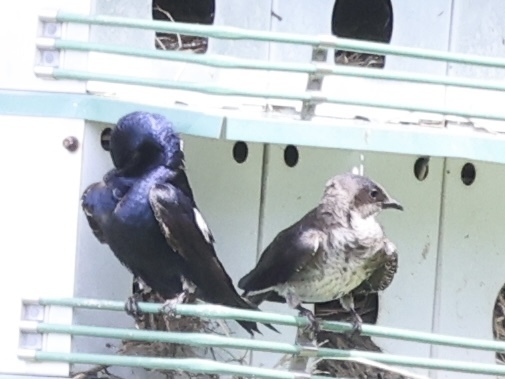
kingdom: Animalia
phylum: Chordata
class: Aves
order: Passeriformes
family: Hirundinidae
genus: Progne
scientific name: Progne subis
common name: Purple martin
